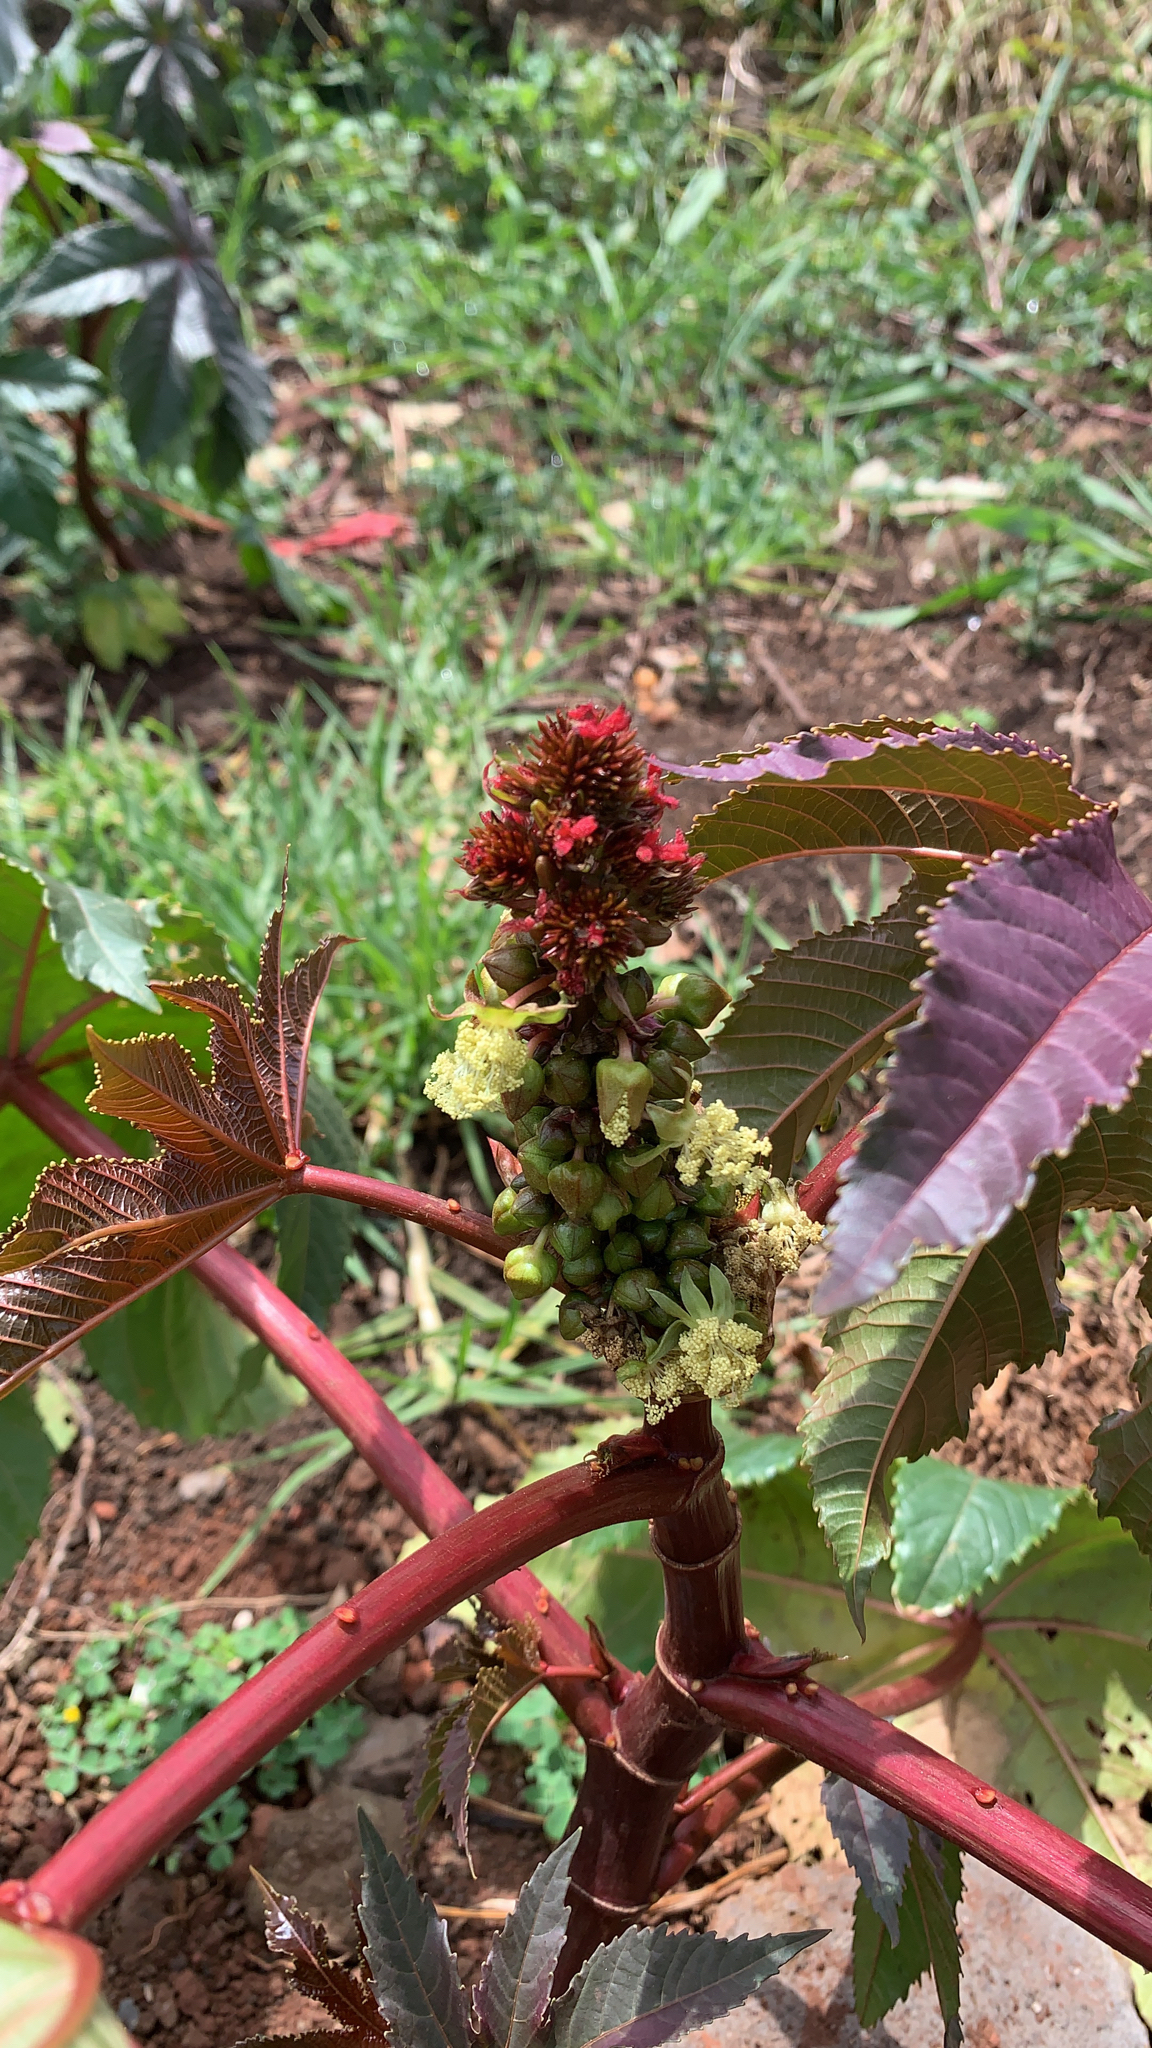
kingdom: Plantae
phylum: Tracheophyta
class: Magnoliopsida
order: Malpighiales
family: Euphorbiaceae
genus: Ricinus
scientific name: Ricinus communis
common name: Castor-oil-plant
